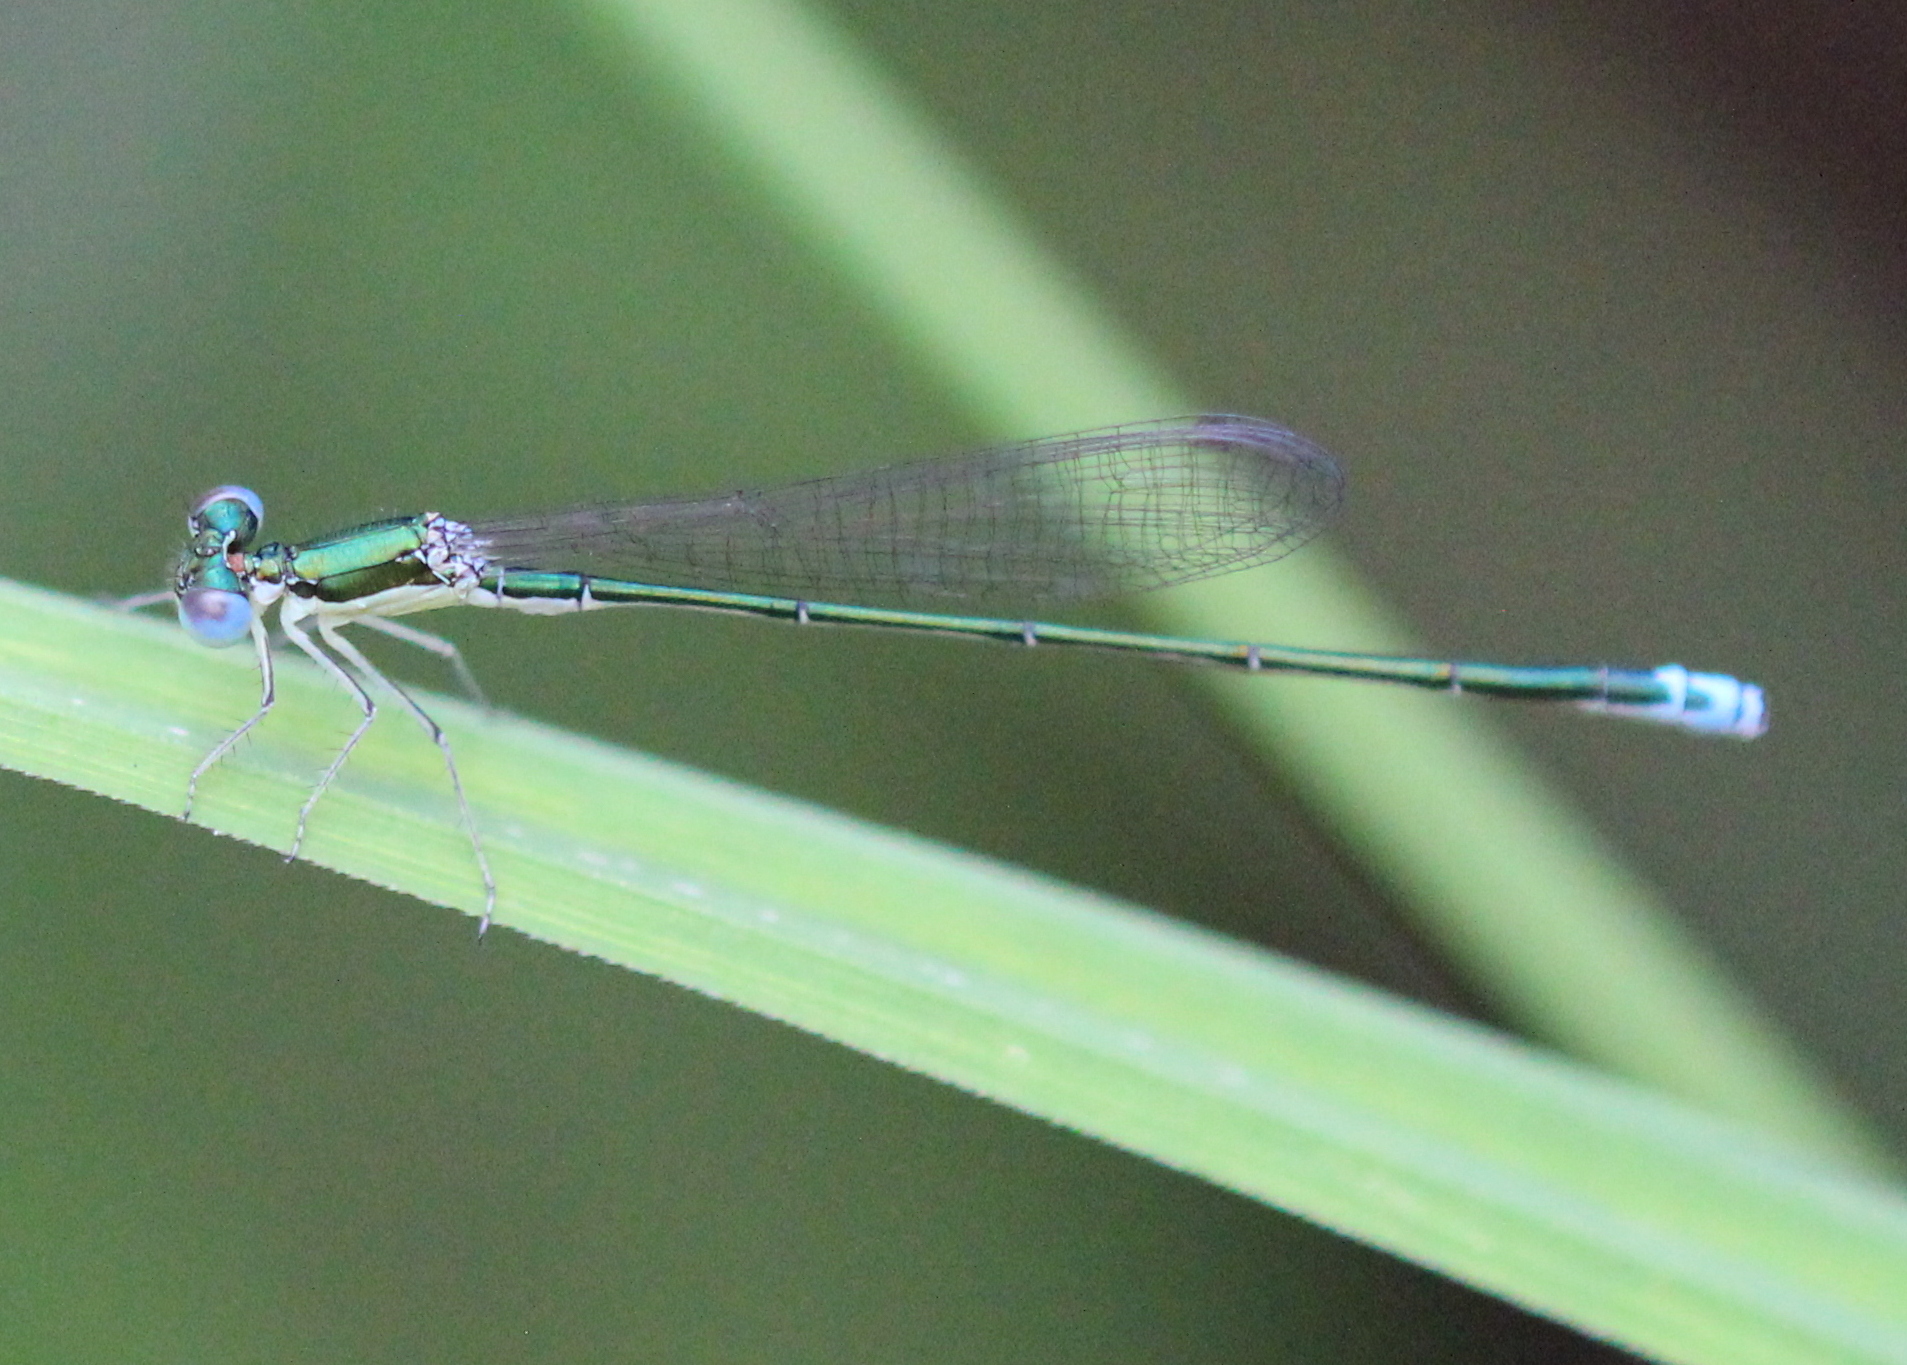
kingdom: Animalia
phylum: Arthropoda
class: Insecta
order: Odonata
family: Coenagrionidae
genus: Nehalennia
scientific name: Nehalennia irene
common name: Sedge sprite
